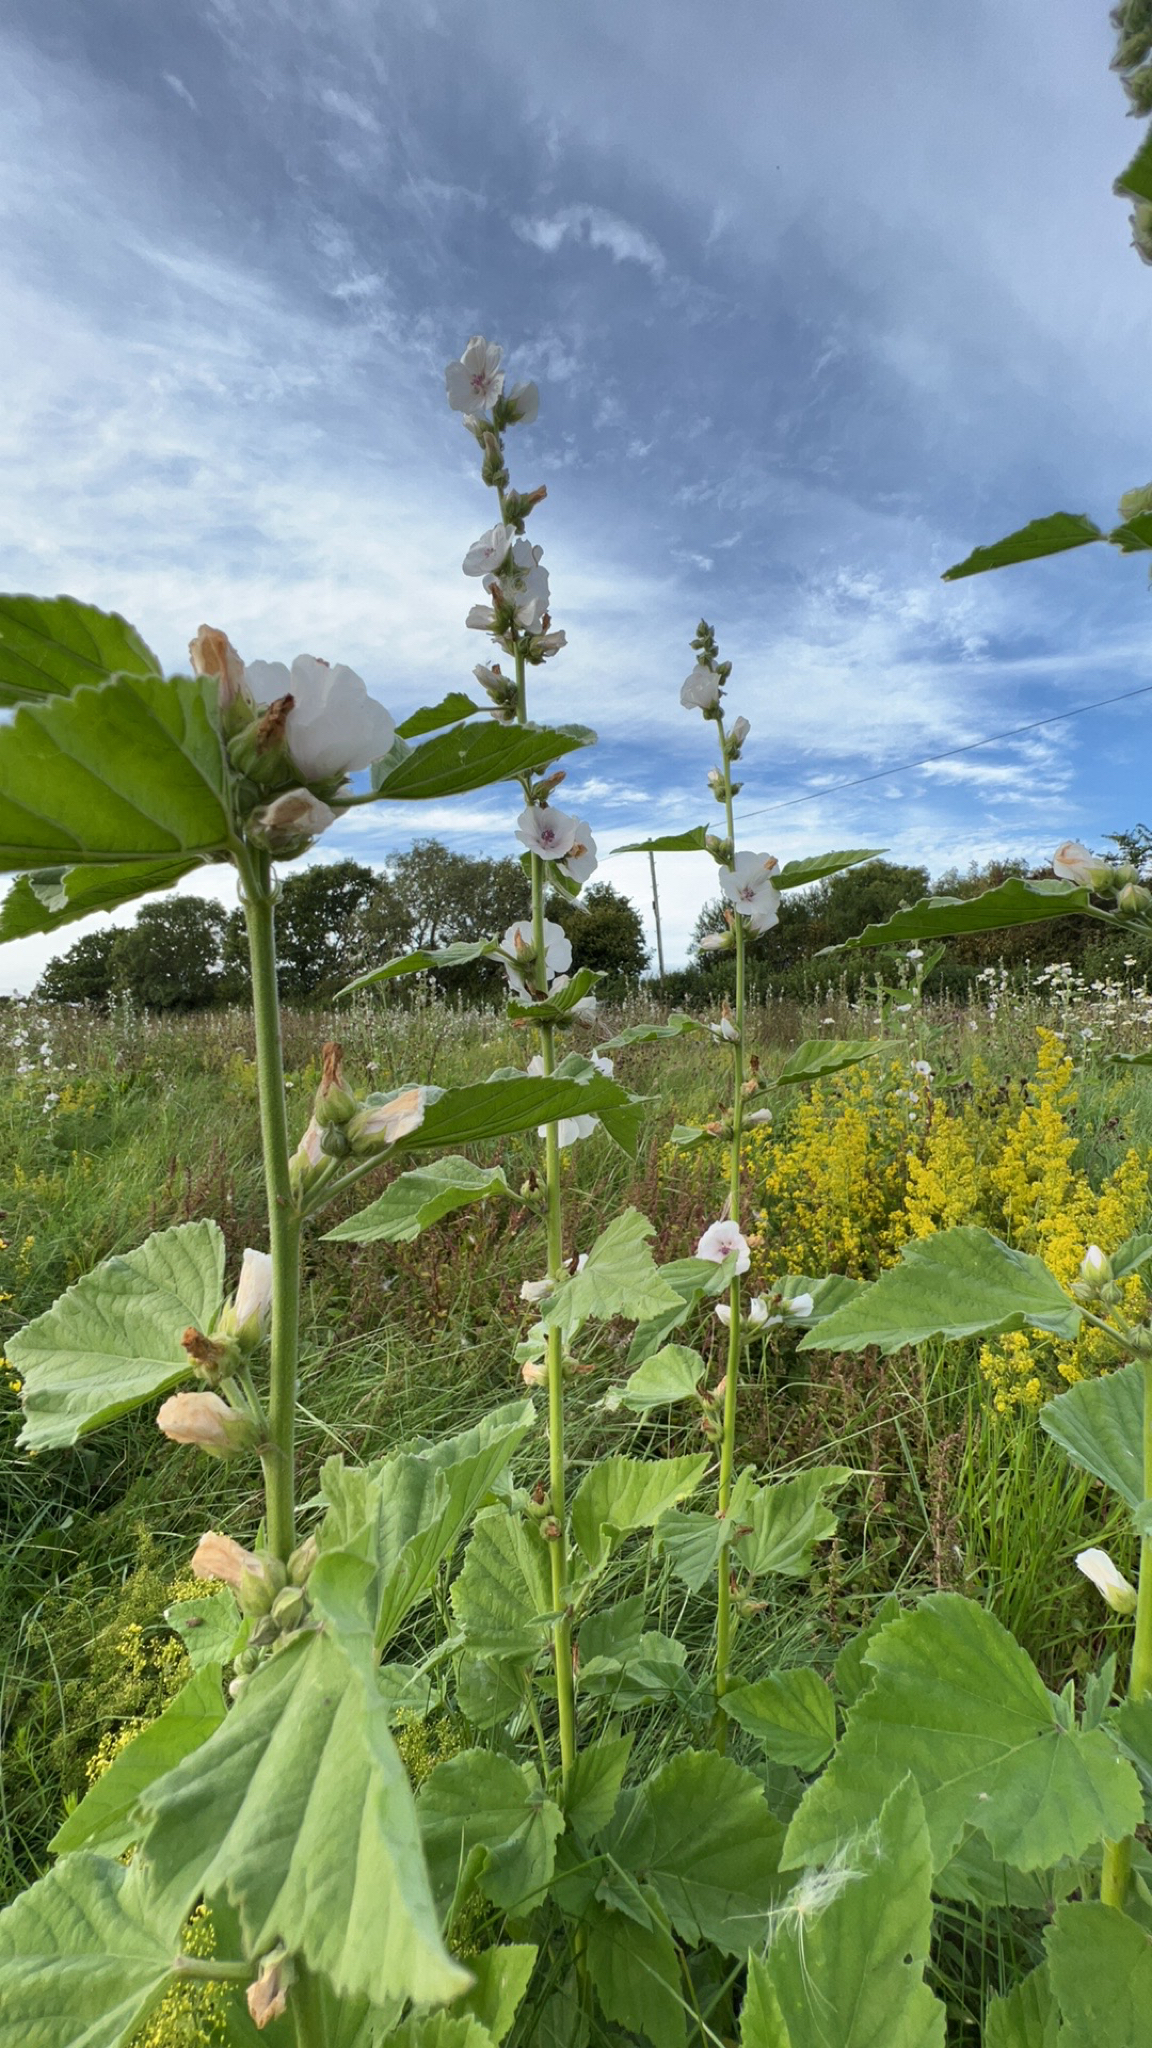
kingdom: Plantae
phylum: Tracheophyta
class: Magnoliopsida
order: Malvales
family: Malvaceae
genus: Althaea
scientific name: Althaea officinalis
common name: Marsh-mallow
